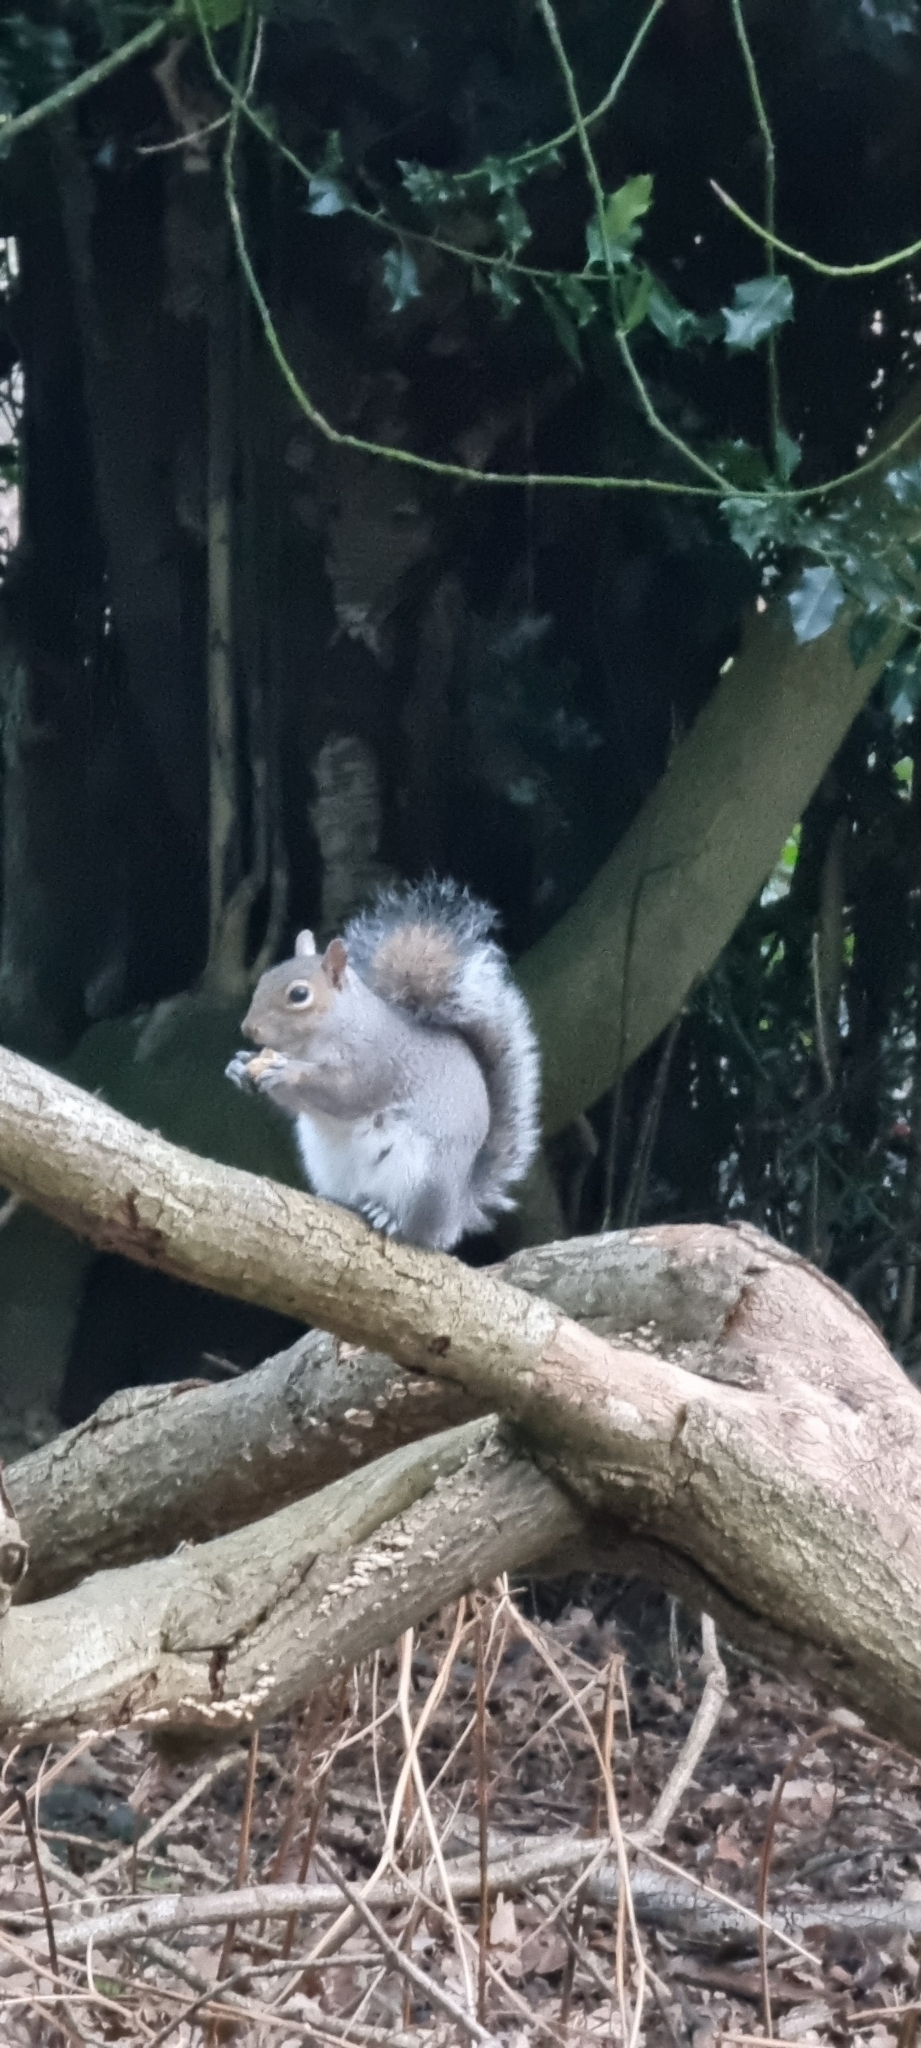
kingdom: Animalia
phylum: Chordata
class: Mammalia
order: Rodentia
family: Sciuridae
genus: Sciurus
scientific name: Sciurus carolinensis
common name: Eastern gray squirrel
